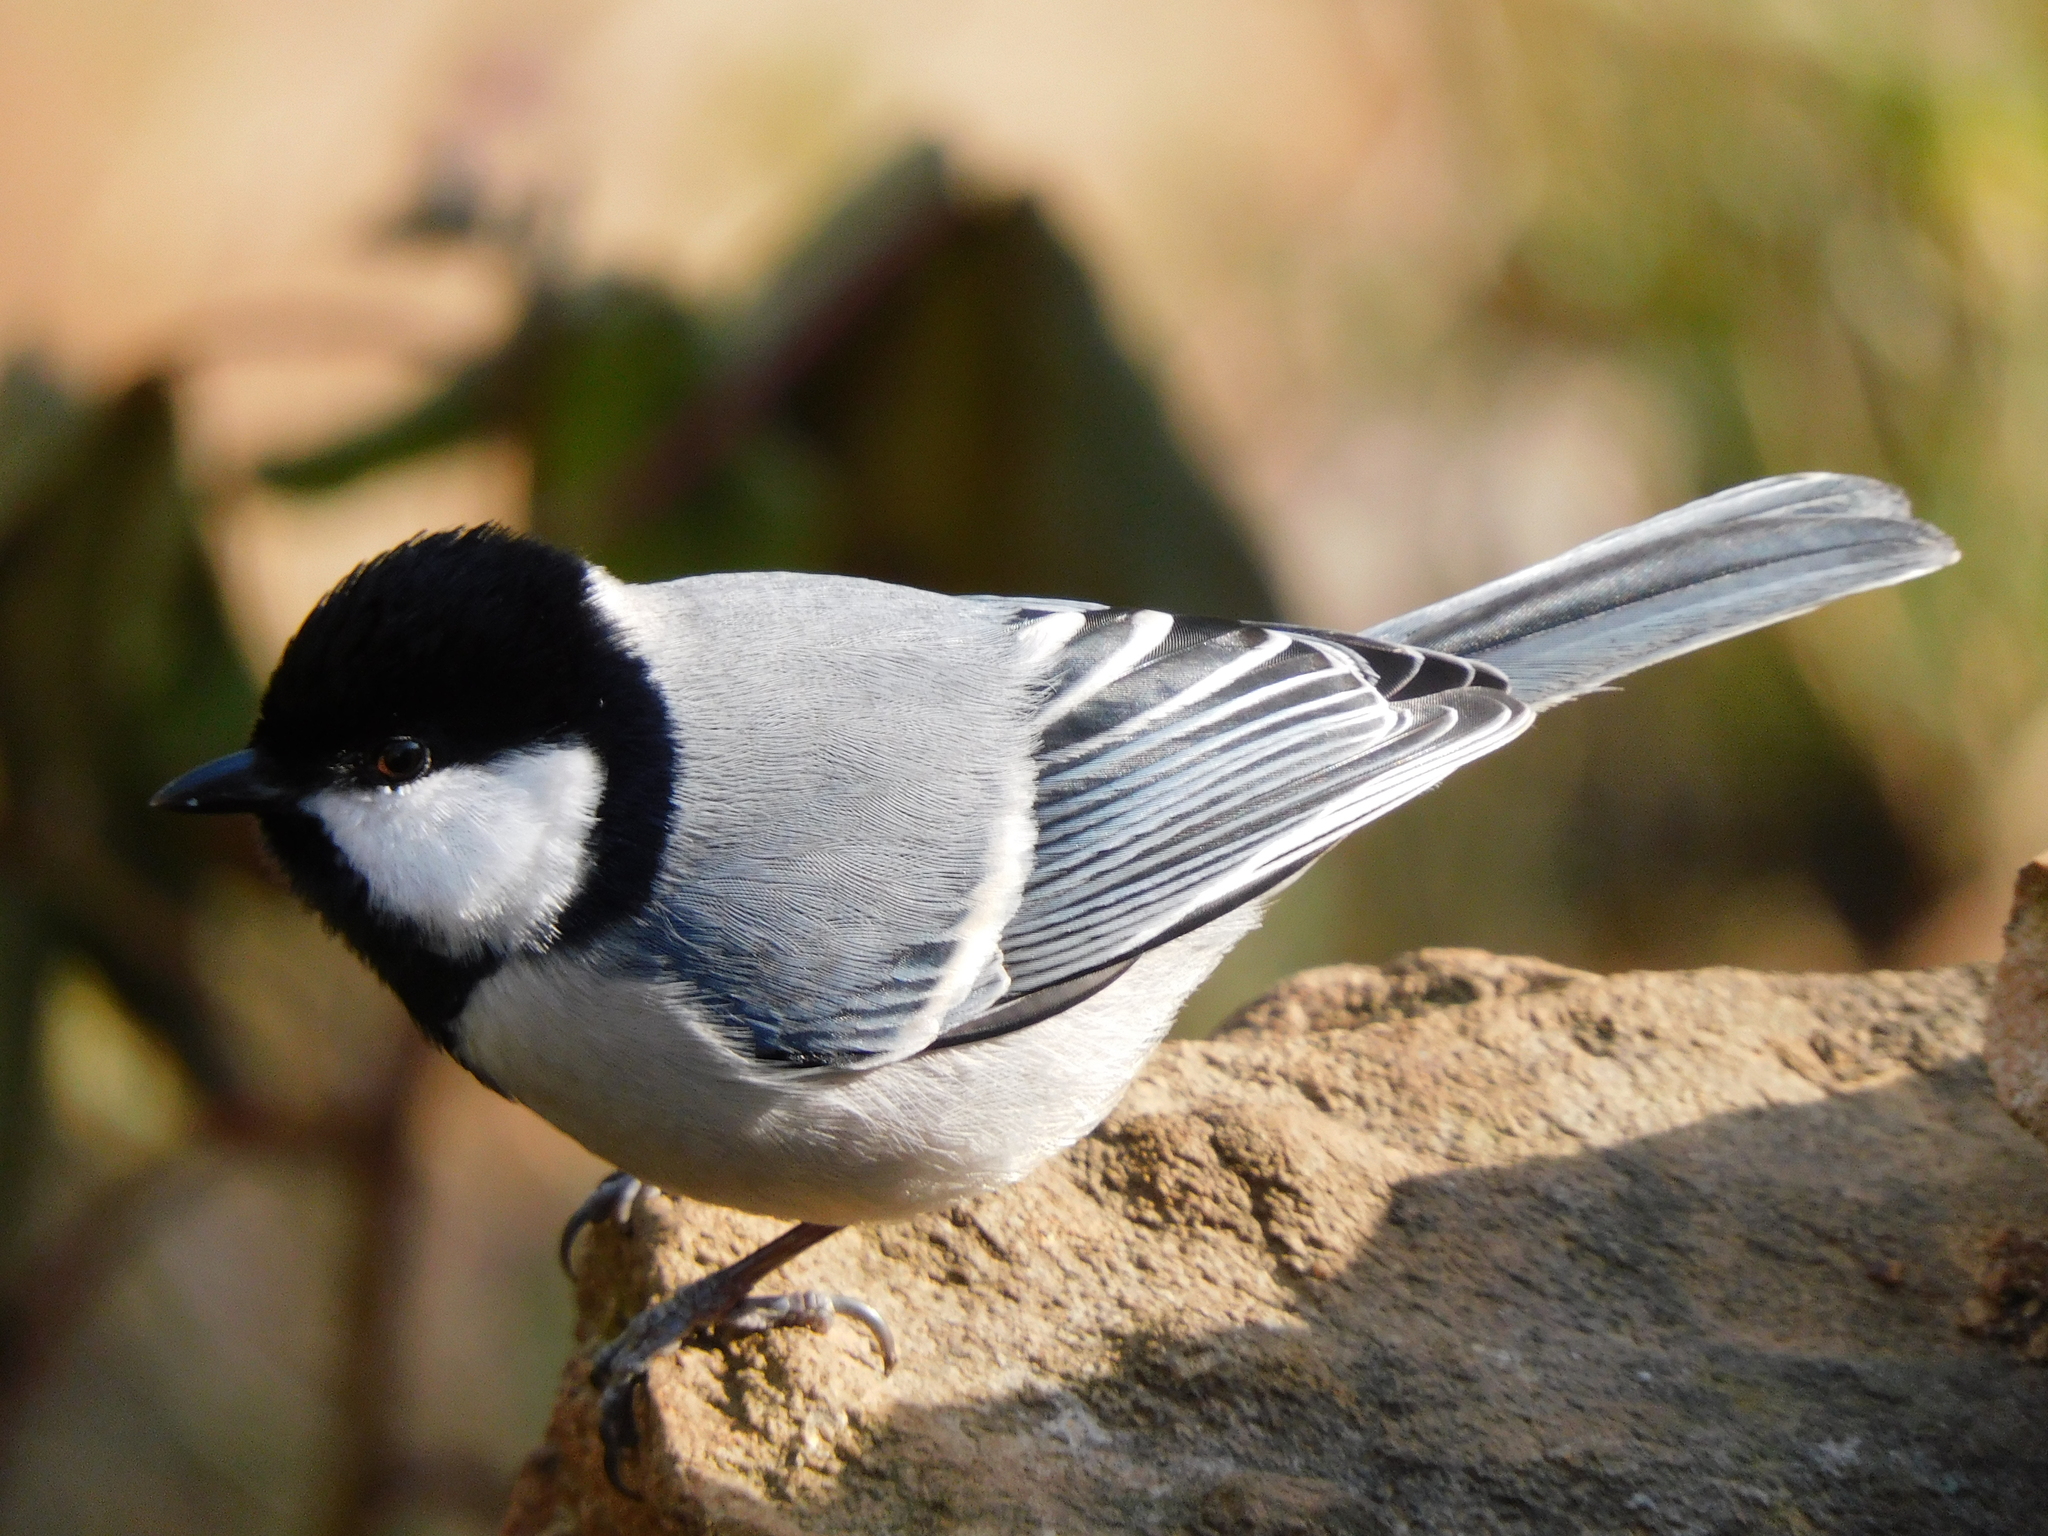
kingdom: Animalia
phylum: Chordata
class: Aves
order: Passeriformes
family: Paridae
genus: Parus
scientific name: Parus cinereus
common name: Cinereous tit
